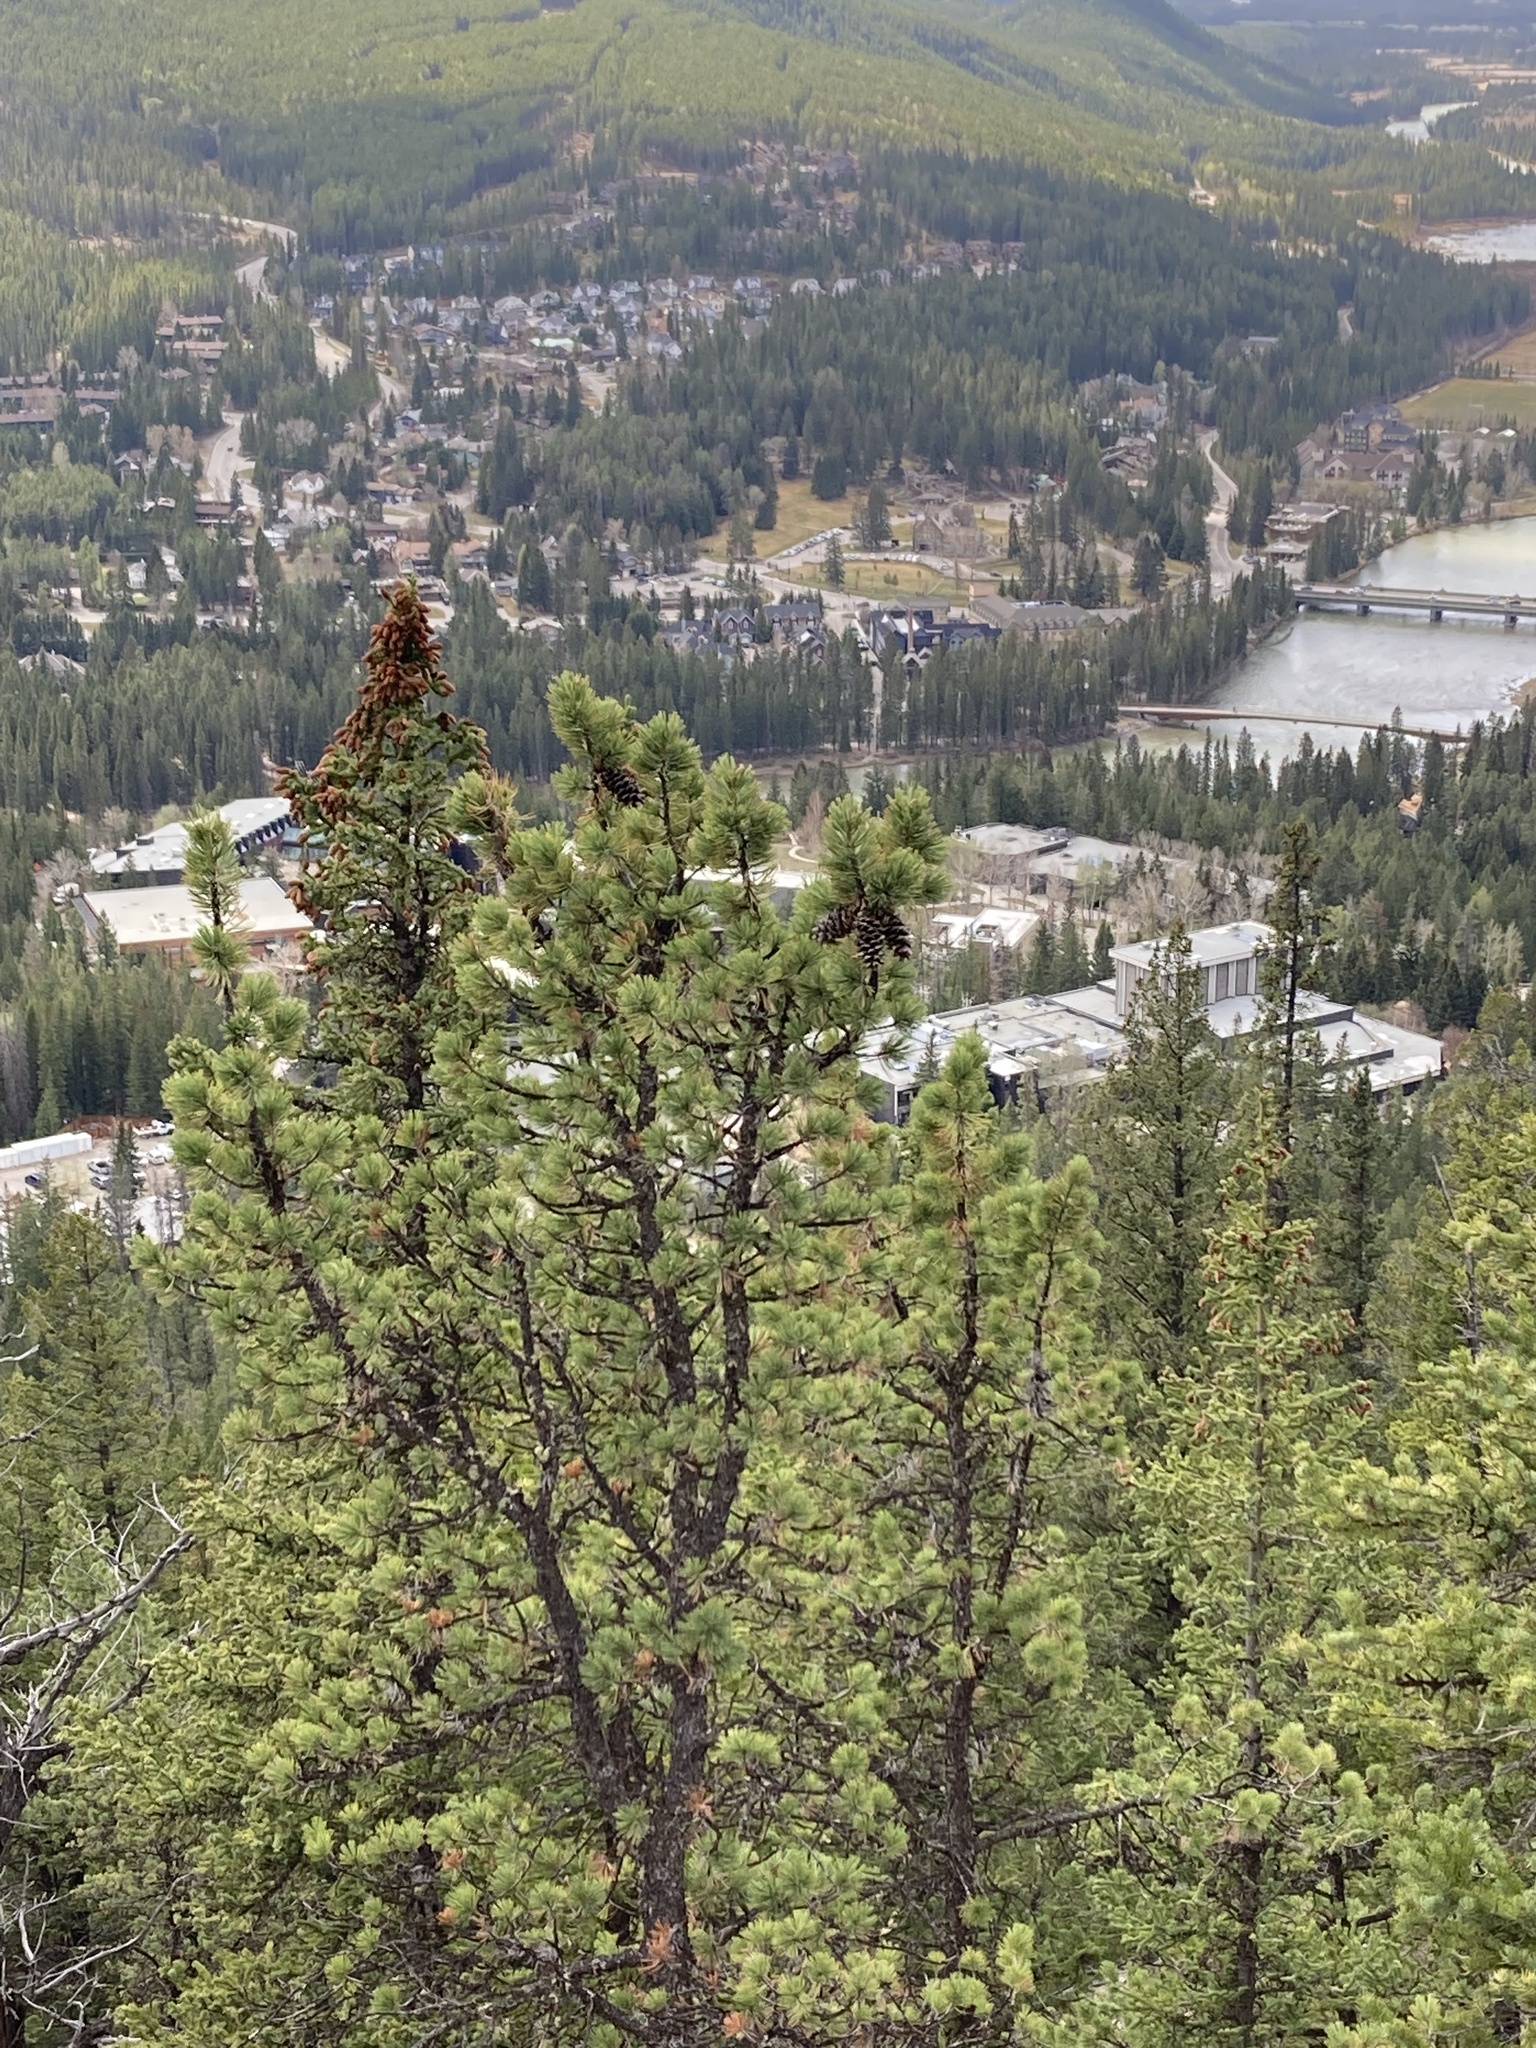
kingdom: Plantae
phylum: Tracheophyta
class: Pinopsida
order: Pinales
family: Pinaceae
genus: Pinus
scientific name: Pinus flexilis
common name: Limber pine
